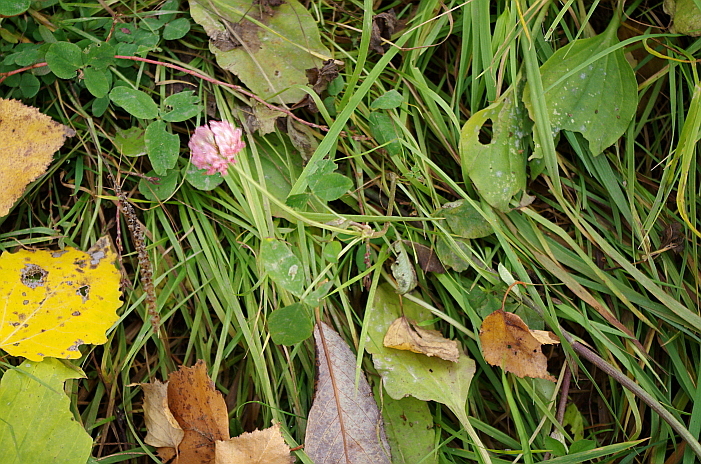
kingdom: Plantae
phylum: Tracheophyta
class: Magnoliopsida
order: Fabales
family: Fabaceae
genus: Trifolium
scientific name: Trifolium hybridum
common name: Alsike clover
